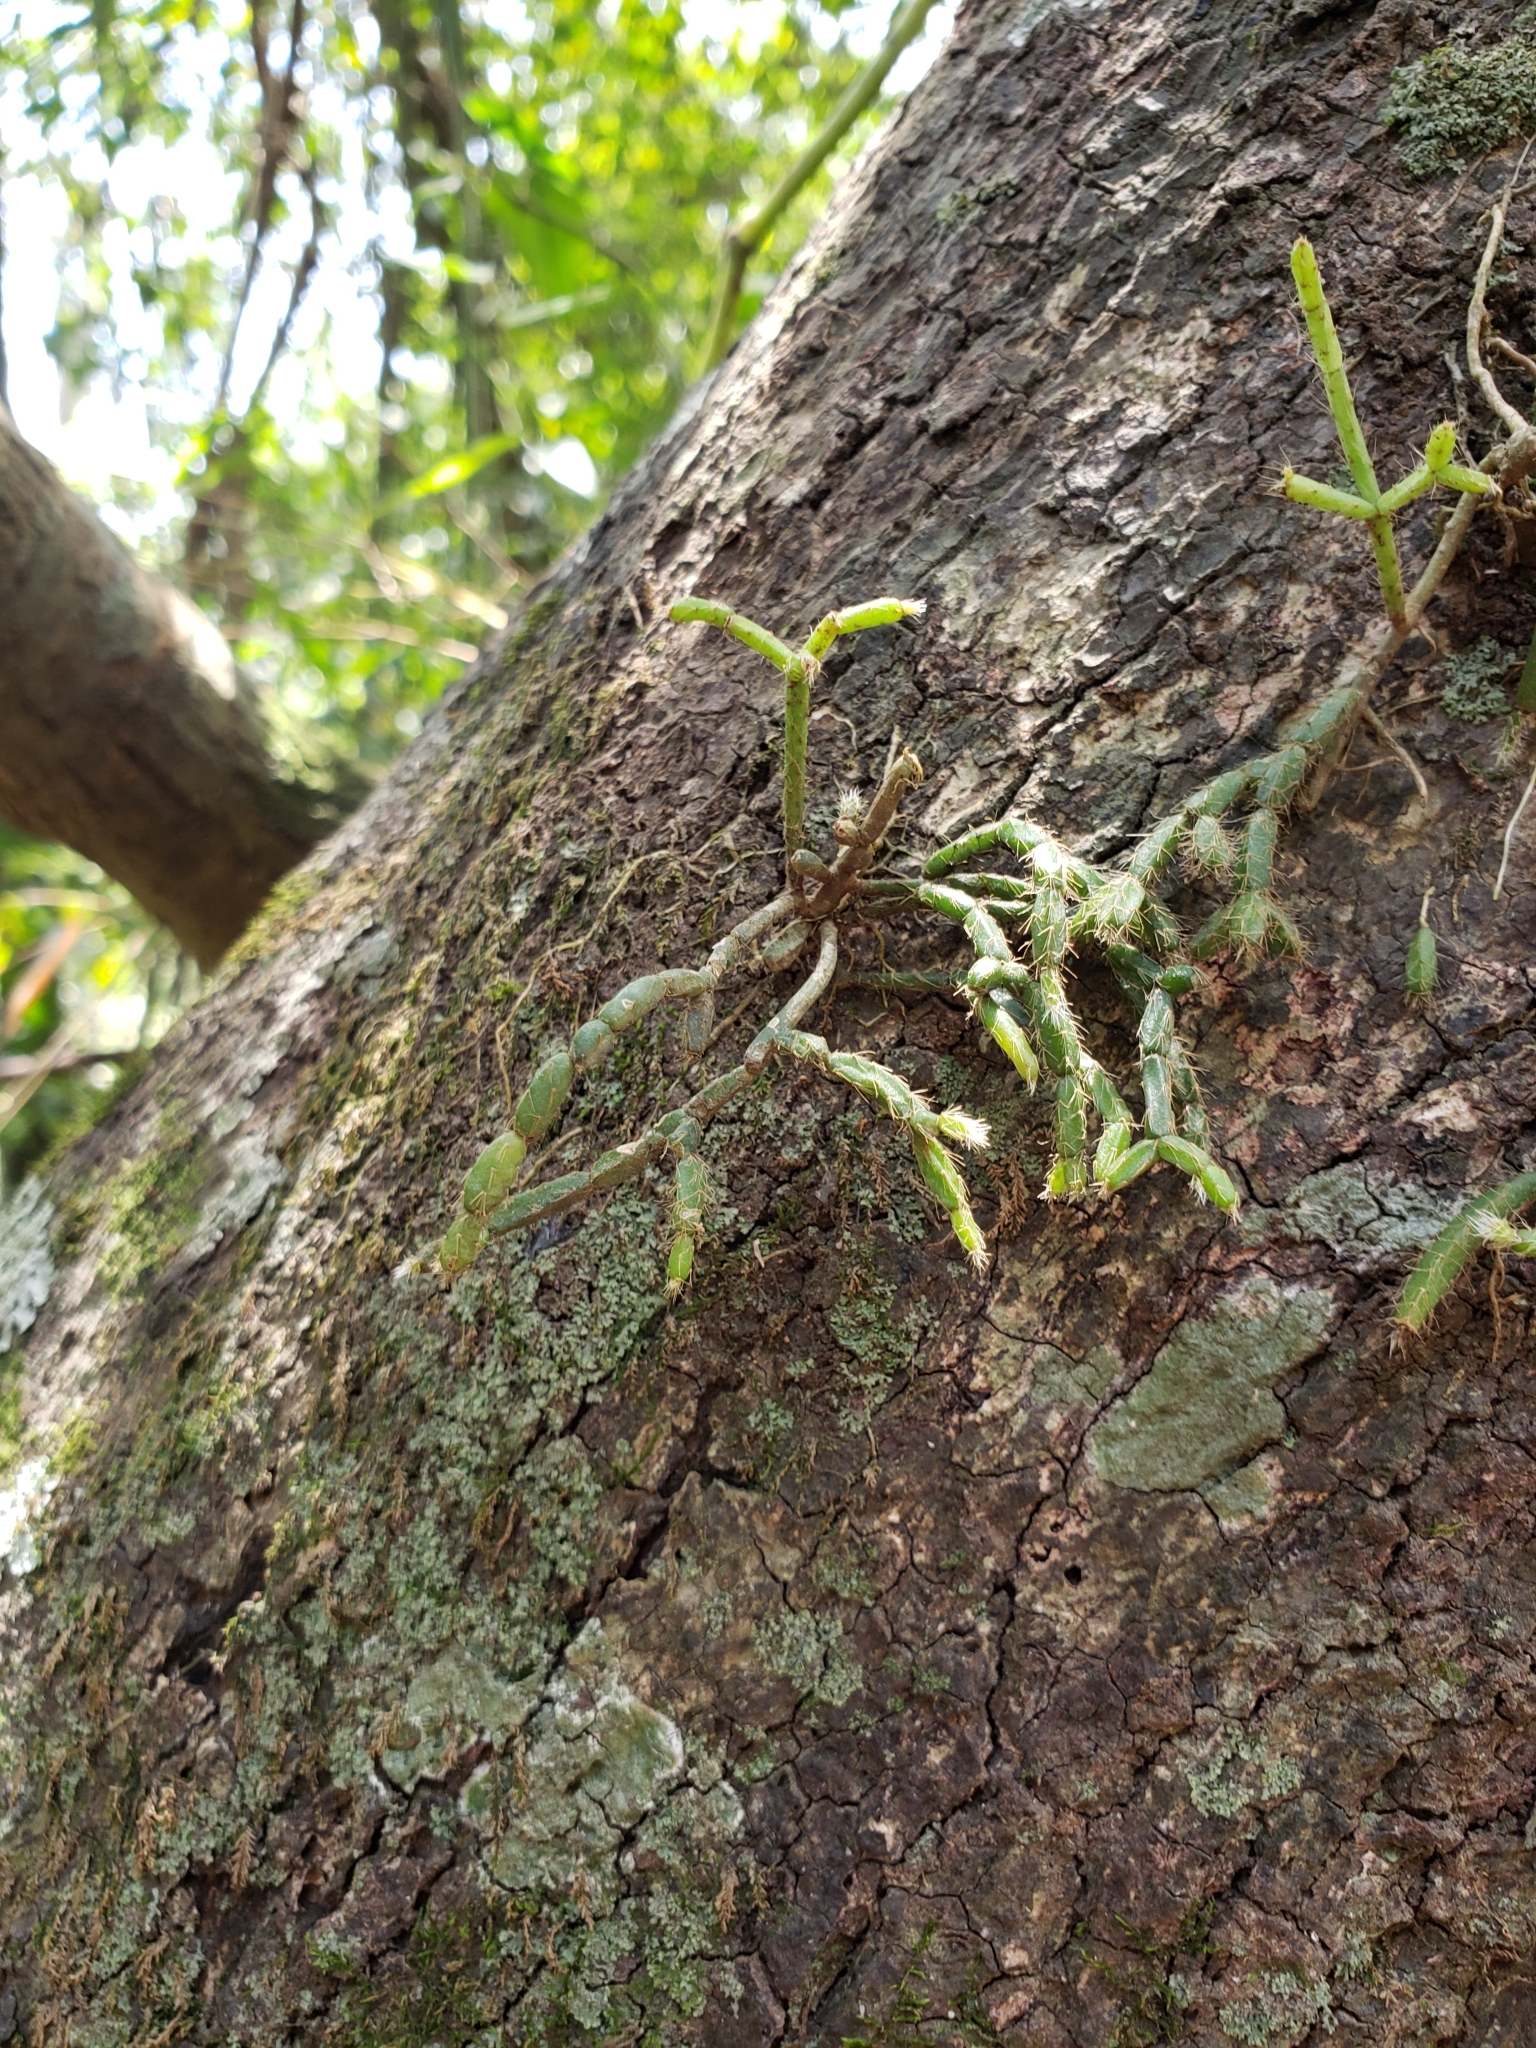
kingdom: Plantae
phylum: Tracheophyta
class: Magnoliopsida
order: Caryophyllales
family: Cactaceae
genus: Rhipsalis
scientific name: Rhipsalis cereuscula
